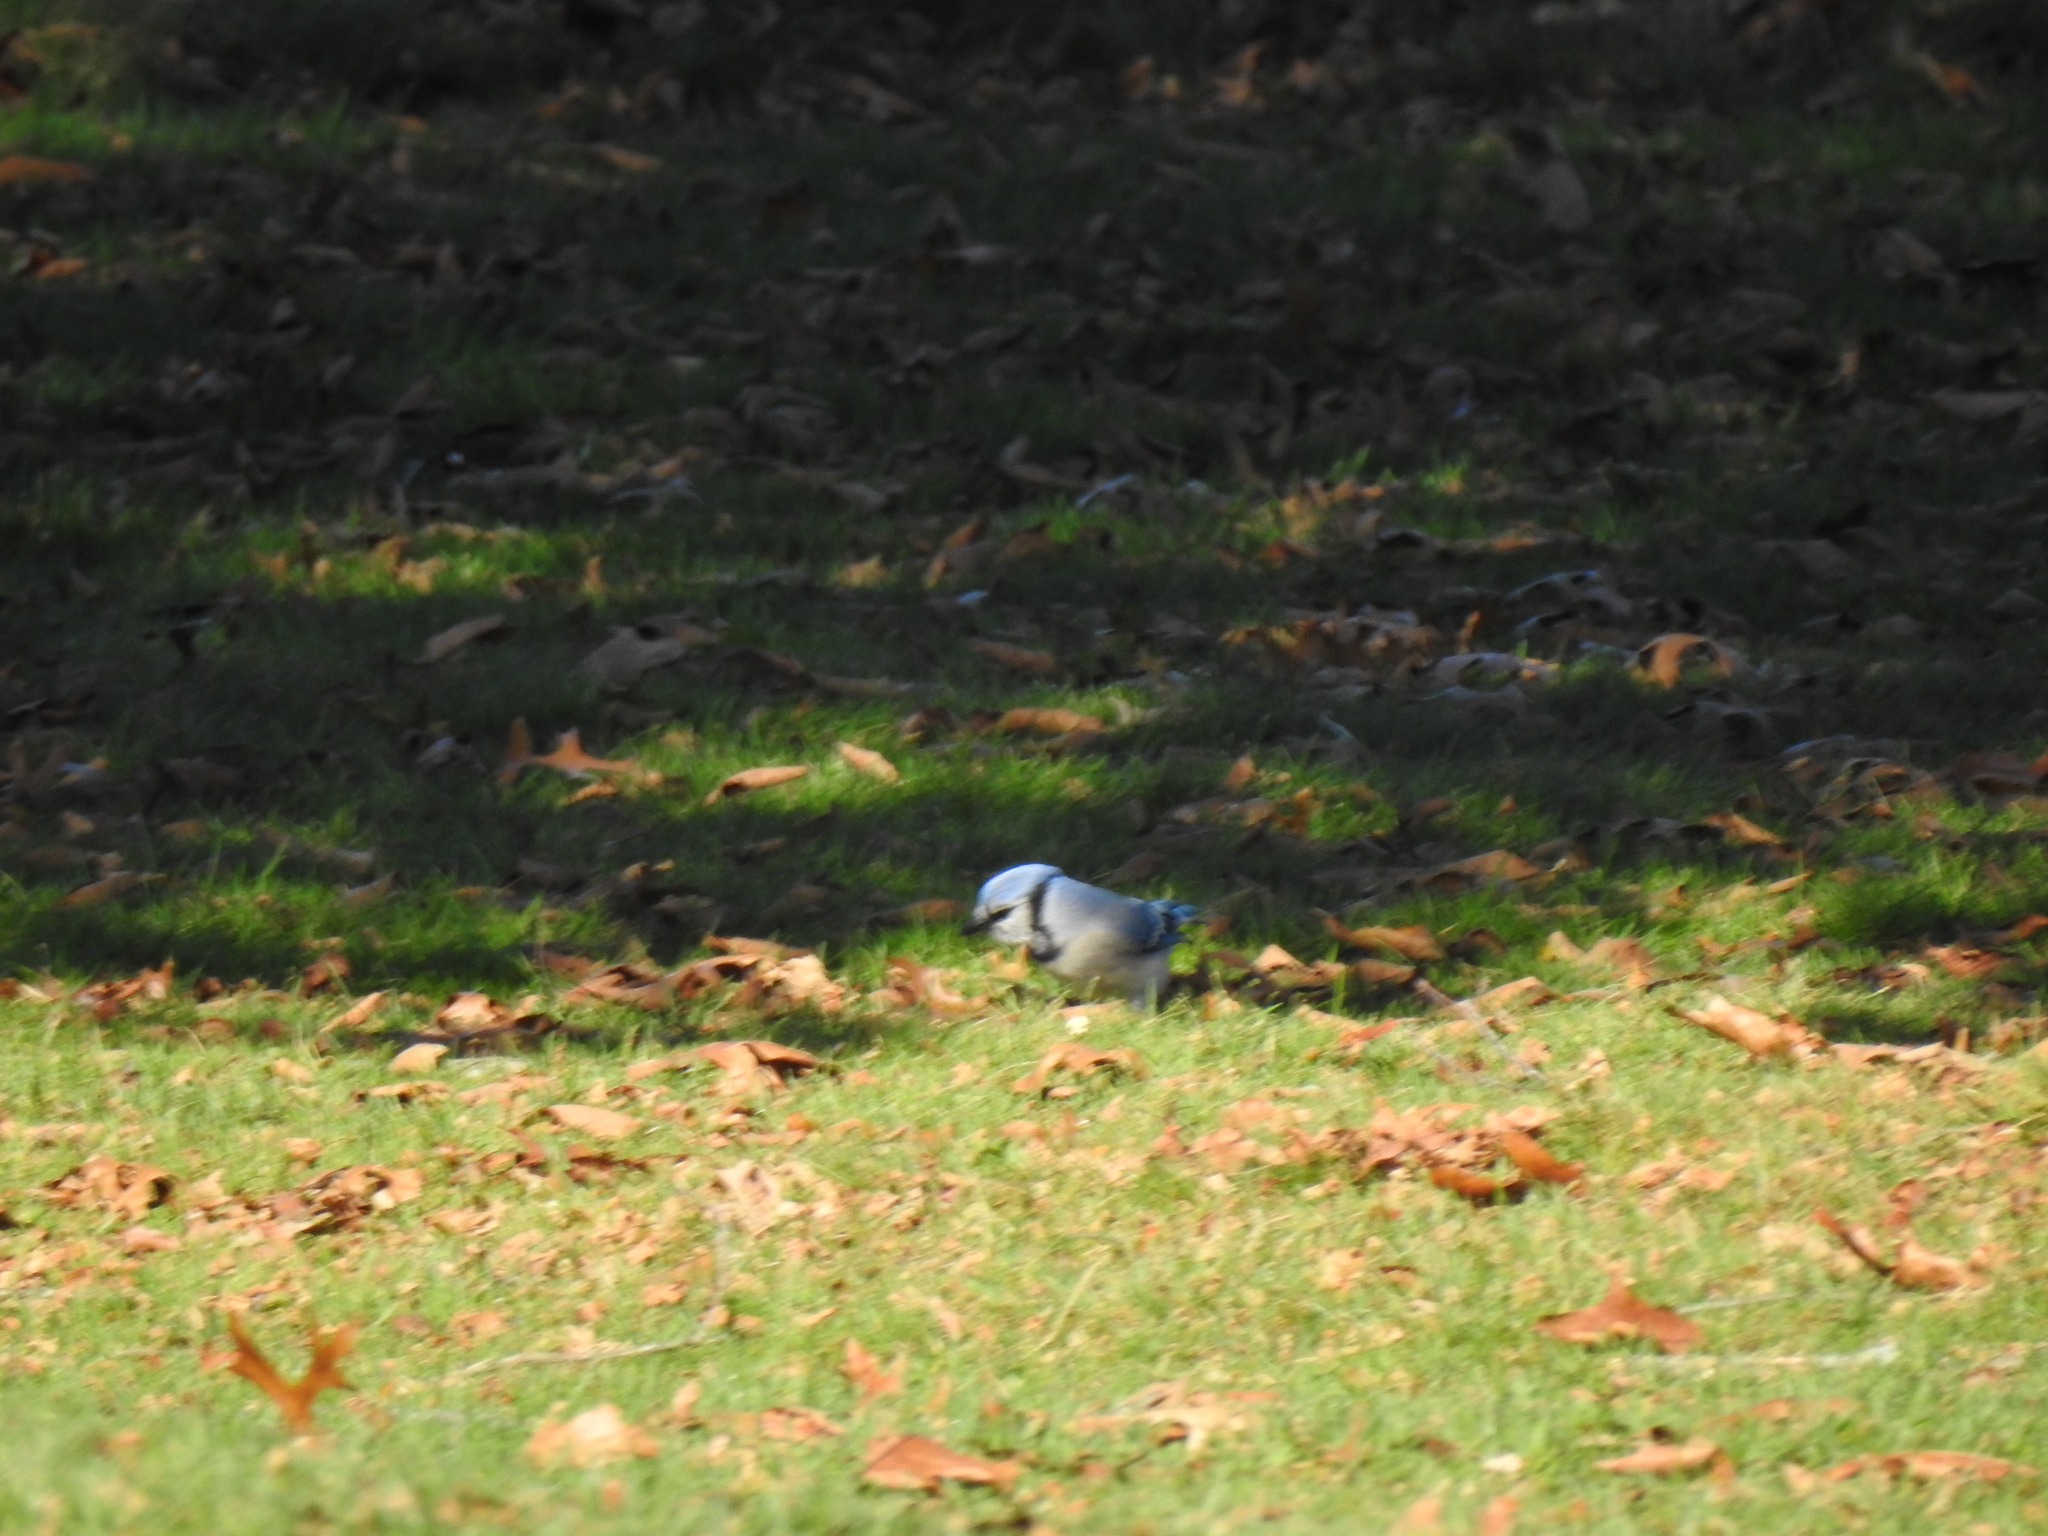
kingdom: Animalia
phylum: Chordata
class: Aves
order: Passeriformes
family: Corvidae
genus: Cyanocitta
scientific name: Cyanocitta cristata
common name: Blue jay
